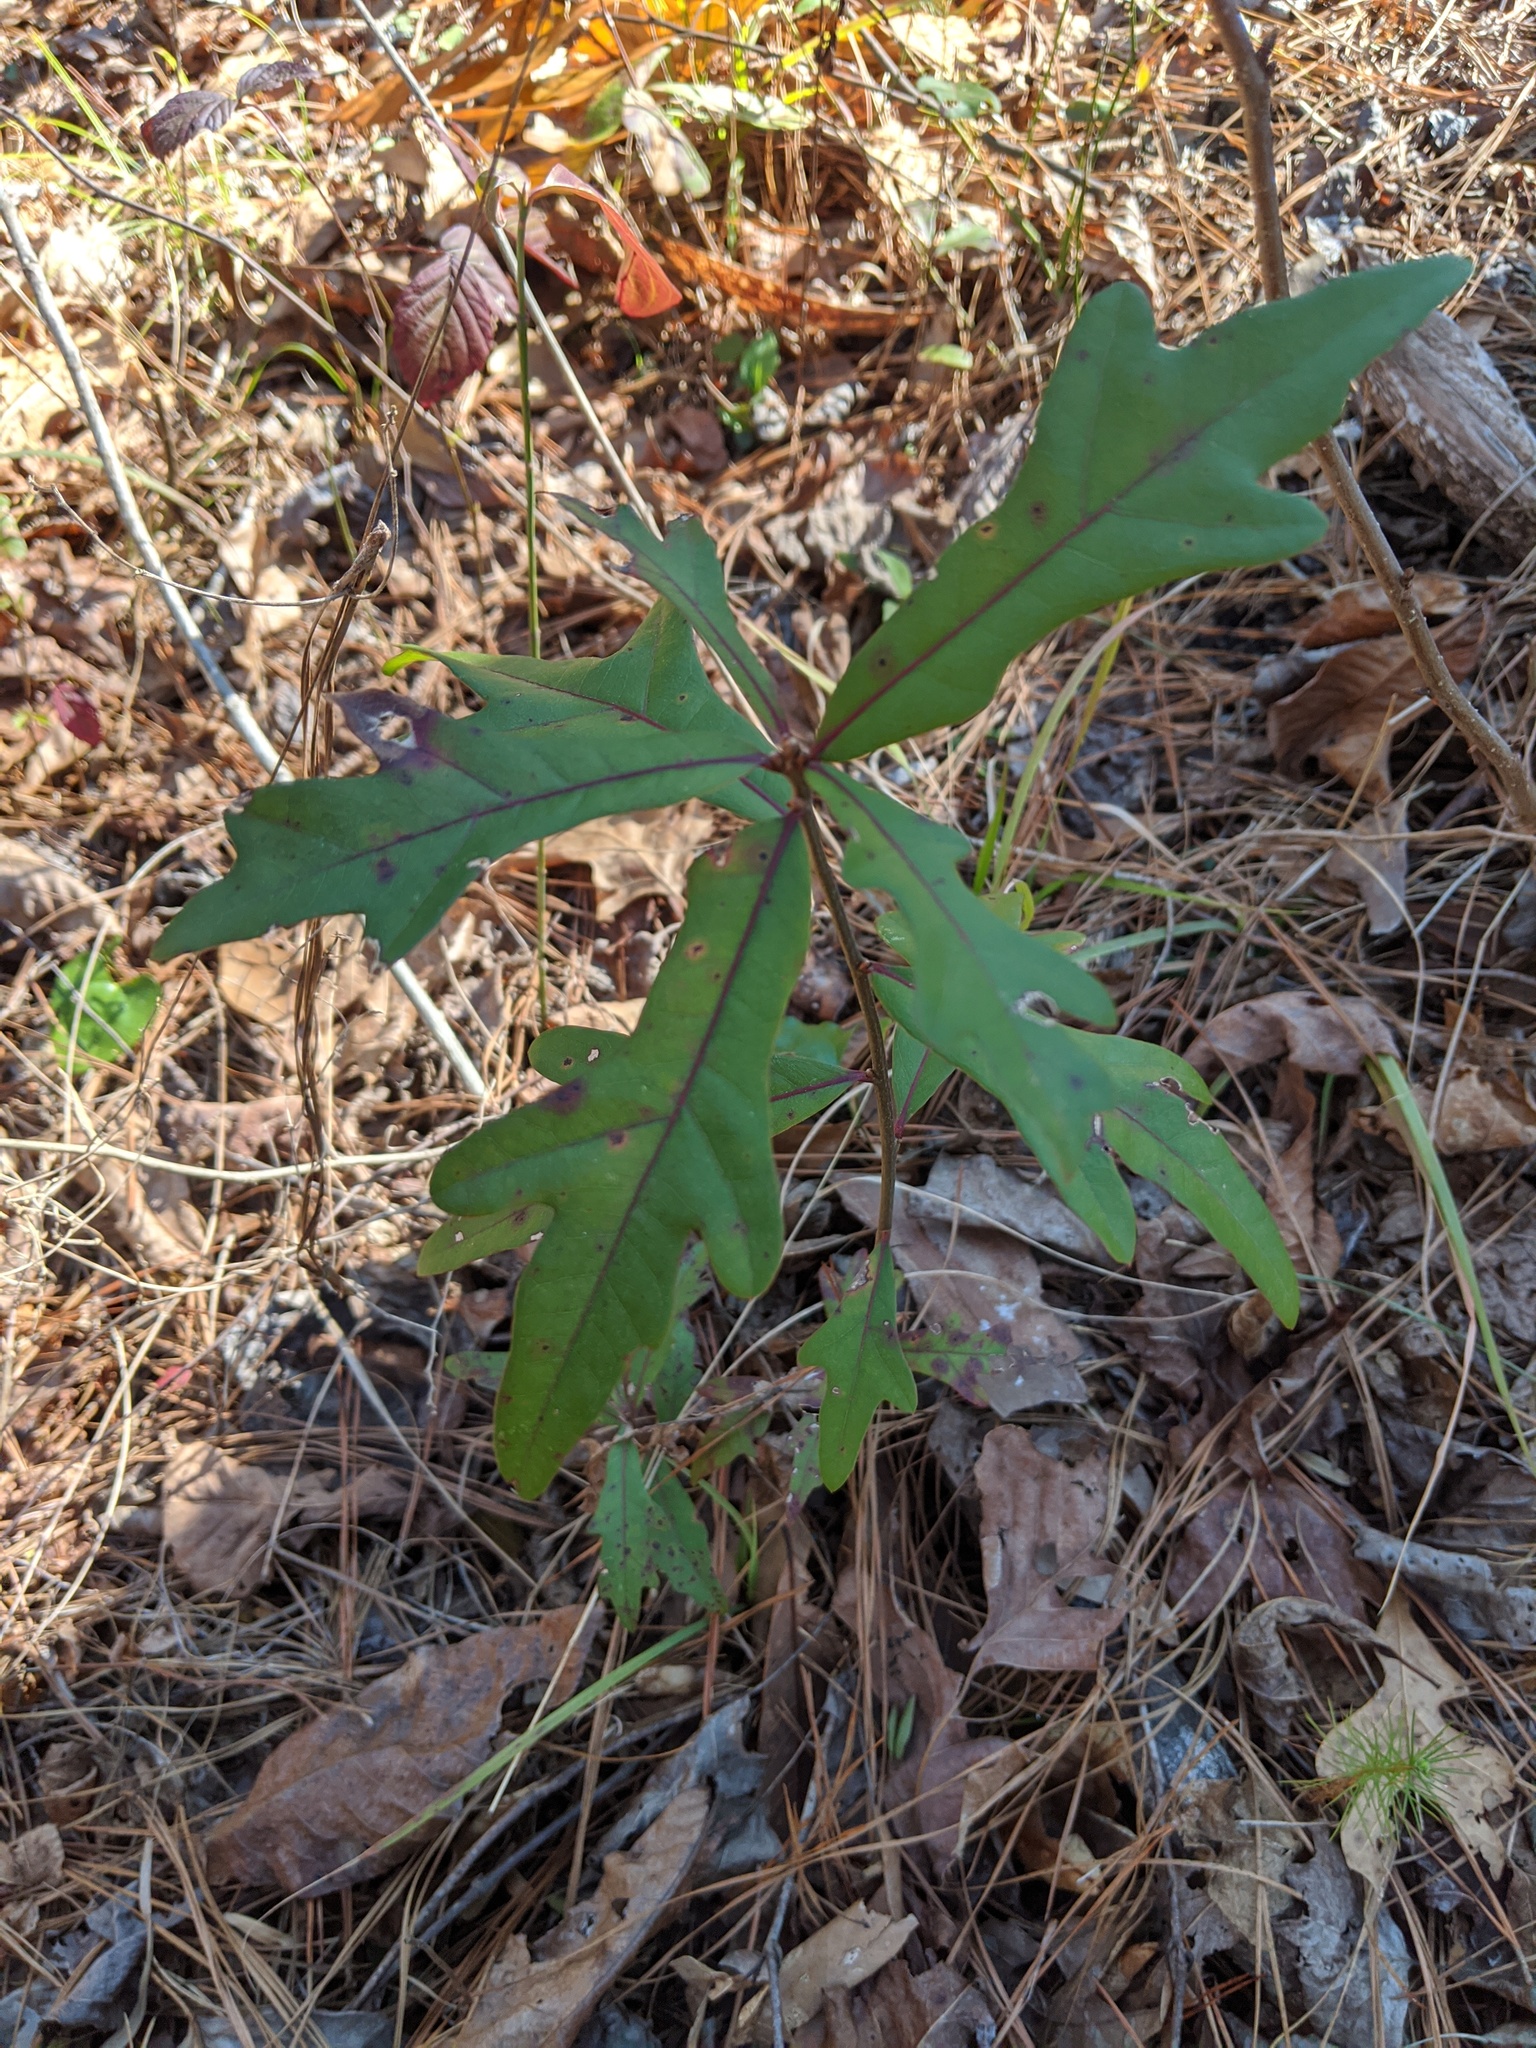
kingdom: Plantae
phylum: Tracheophyta
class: Magnoliopsida
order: Fagales
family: Fagaceae
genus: Quercus
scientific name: Quercus nigra
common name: Water oak
